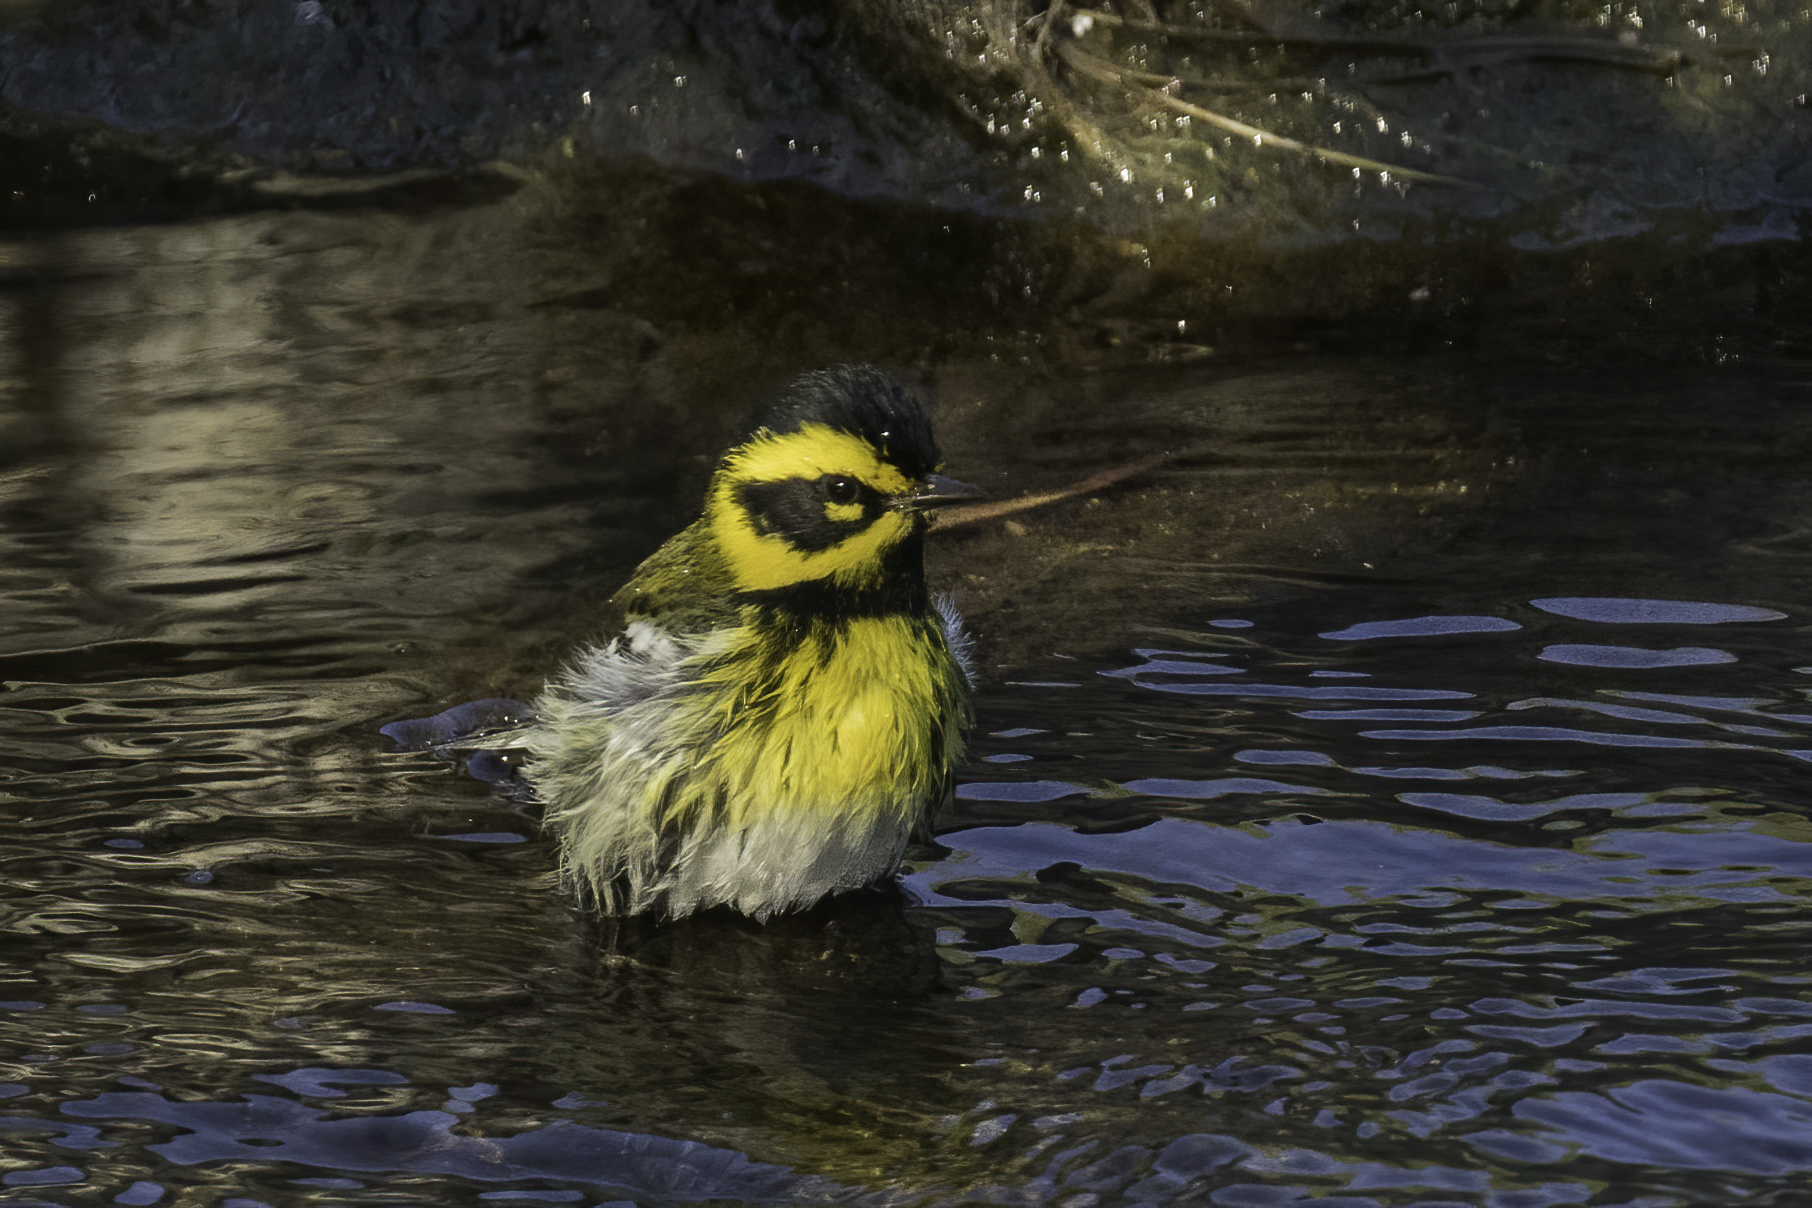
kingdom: Animalia
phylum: Chordata
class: Aves
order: Passeriformes
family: Parulidae
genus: Setophaga
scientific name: Setophaga townsendi
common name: Townsend's warbler
